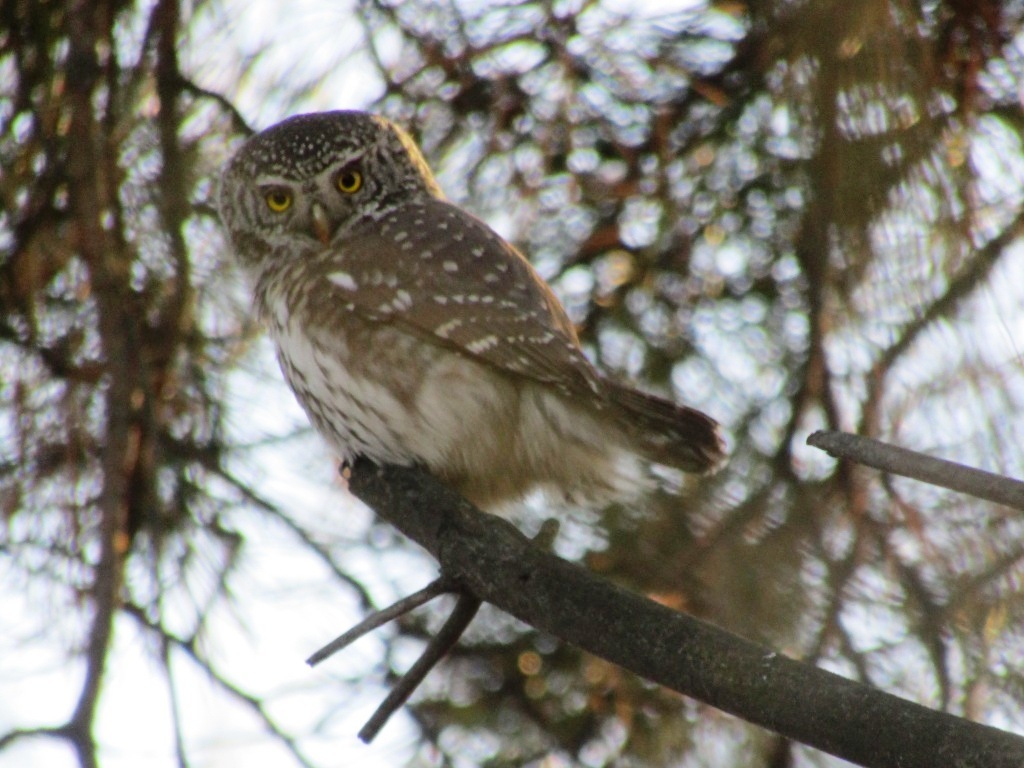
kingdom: Animalia
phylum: Chordata
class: Aves
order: Strigiformes
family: Strigidae
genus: Glaucidium
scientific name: Glaucidium passerinum
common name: Eurasian pygmy owl
